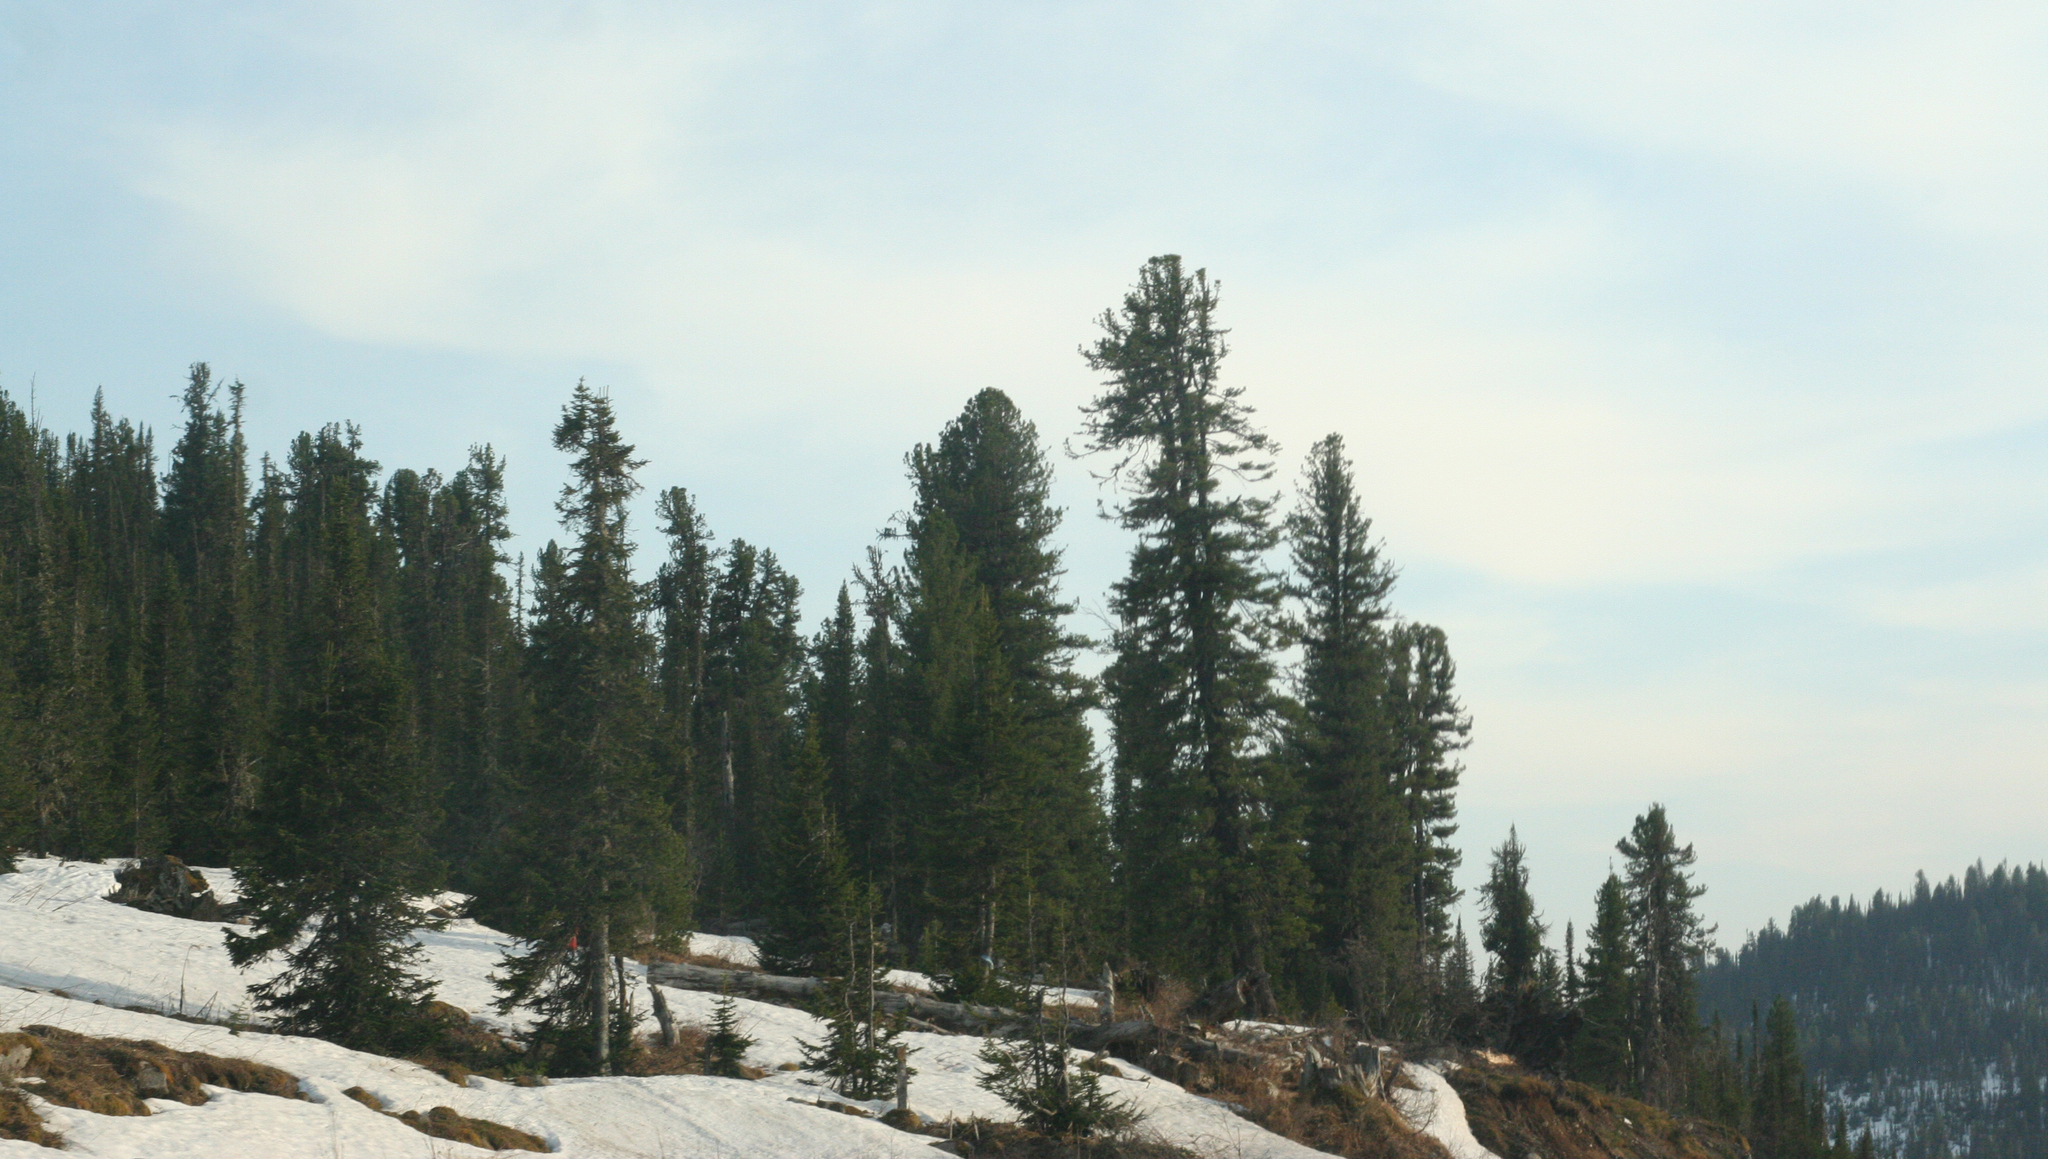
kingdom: Plantae
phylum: Tracheophyta
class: Pinopsida
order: Pinales
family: Pinaceae
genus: Pinus
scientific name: Pinus sibirica
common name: Siberian pine
